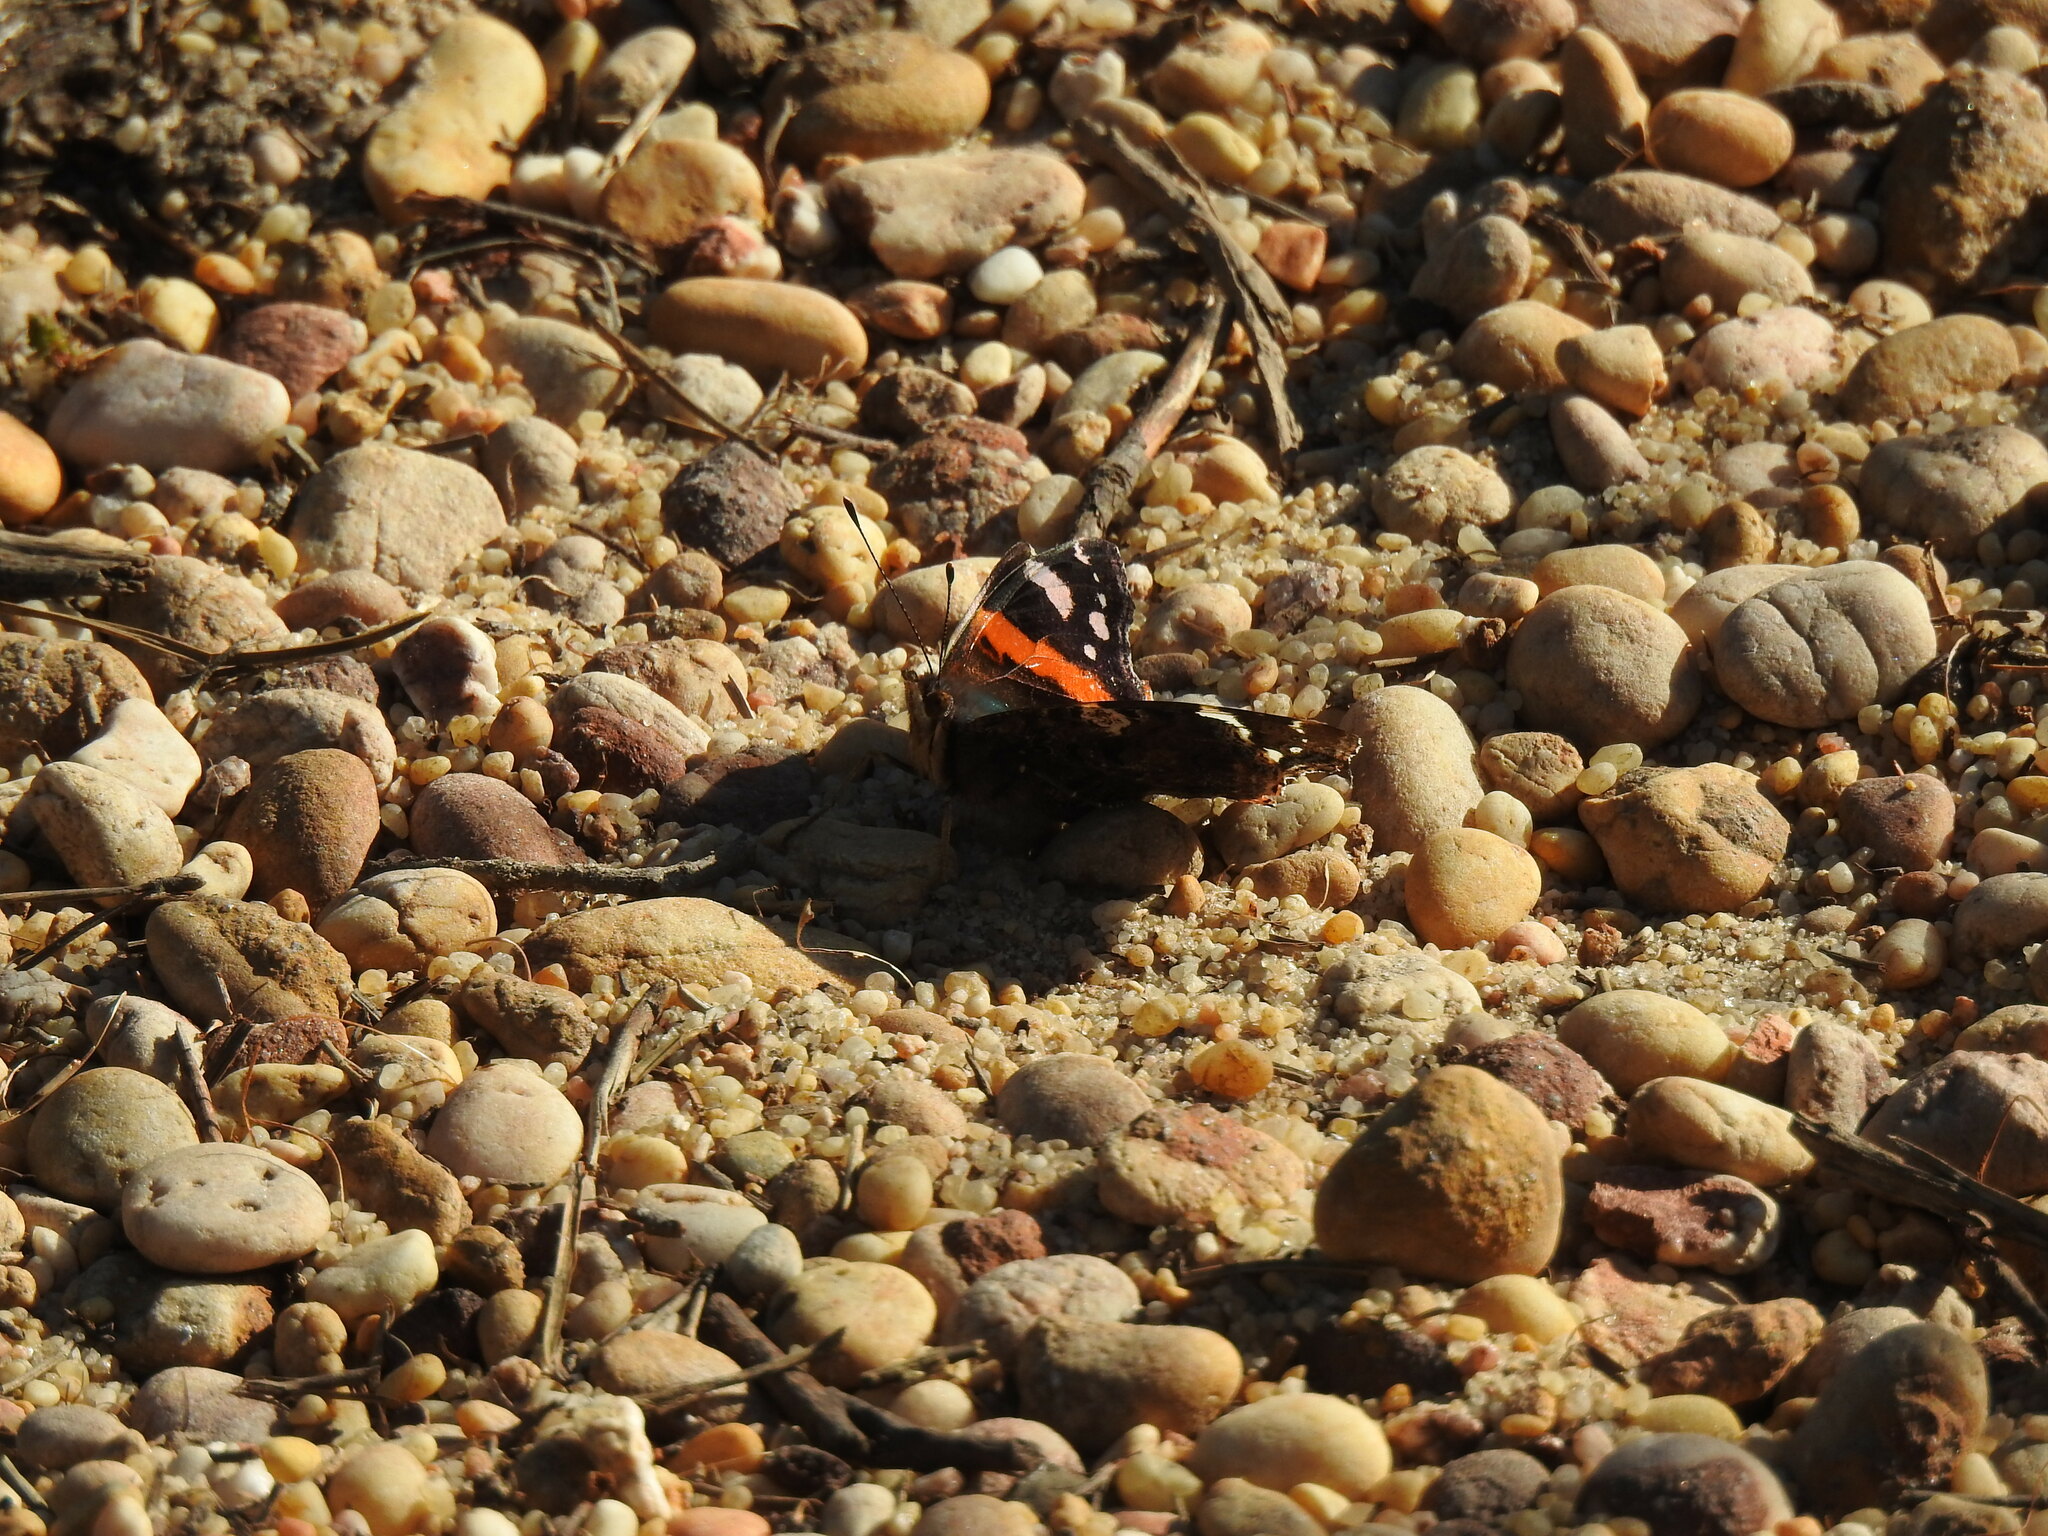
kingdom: Animalia
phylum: Arthropoda
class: Insecta
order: Lepidoptera
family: Nymphalidae
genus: Vanessa
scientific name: Vanessa atalanta
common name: Red admiral
